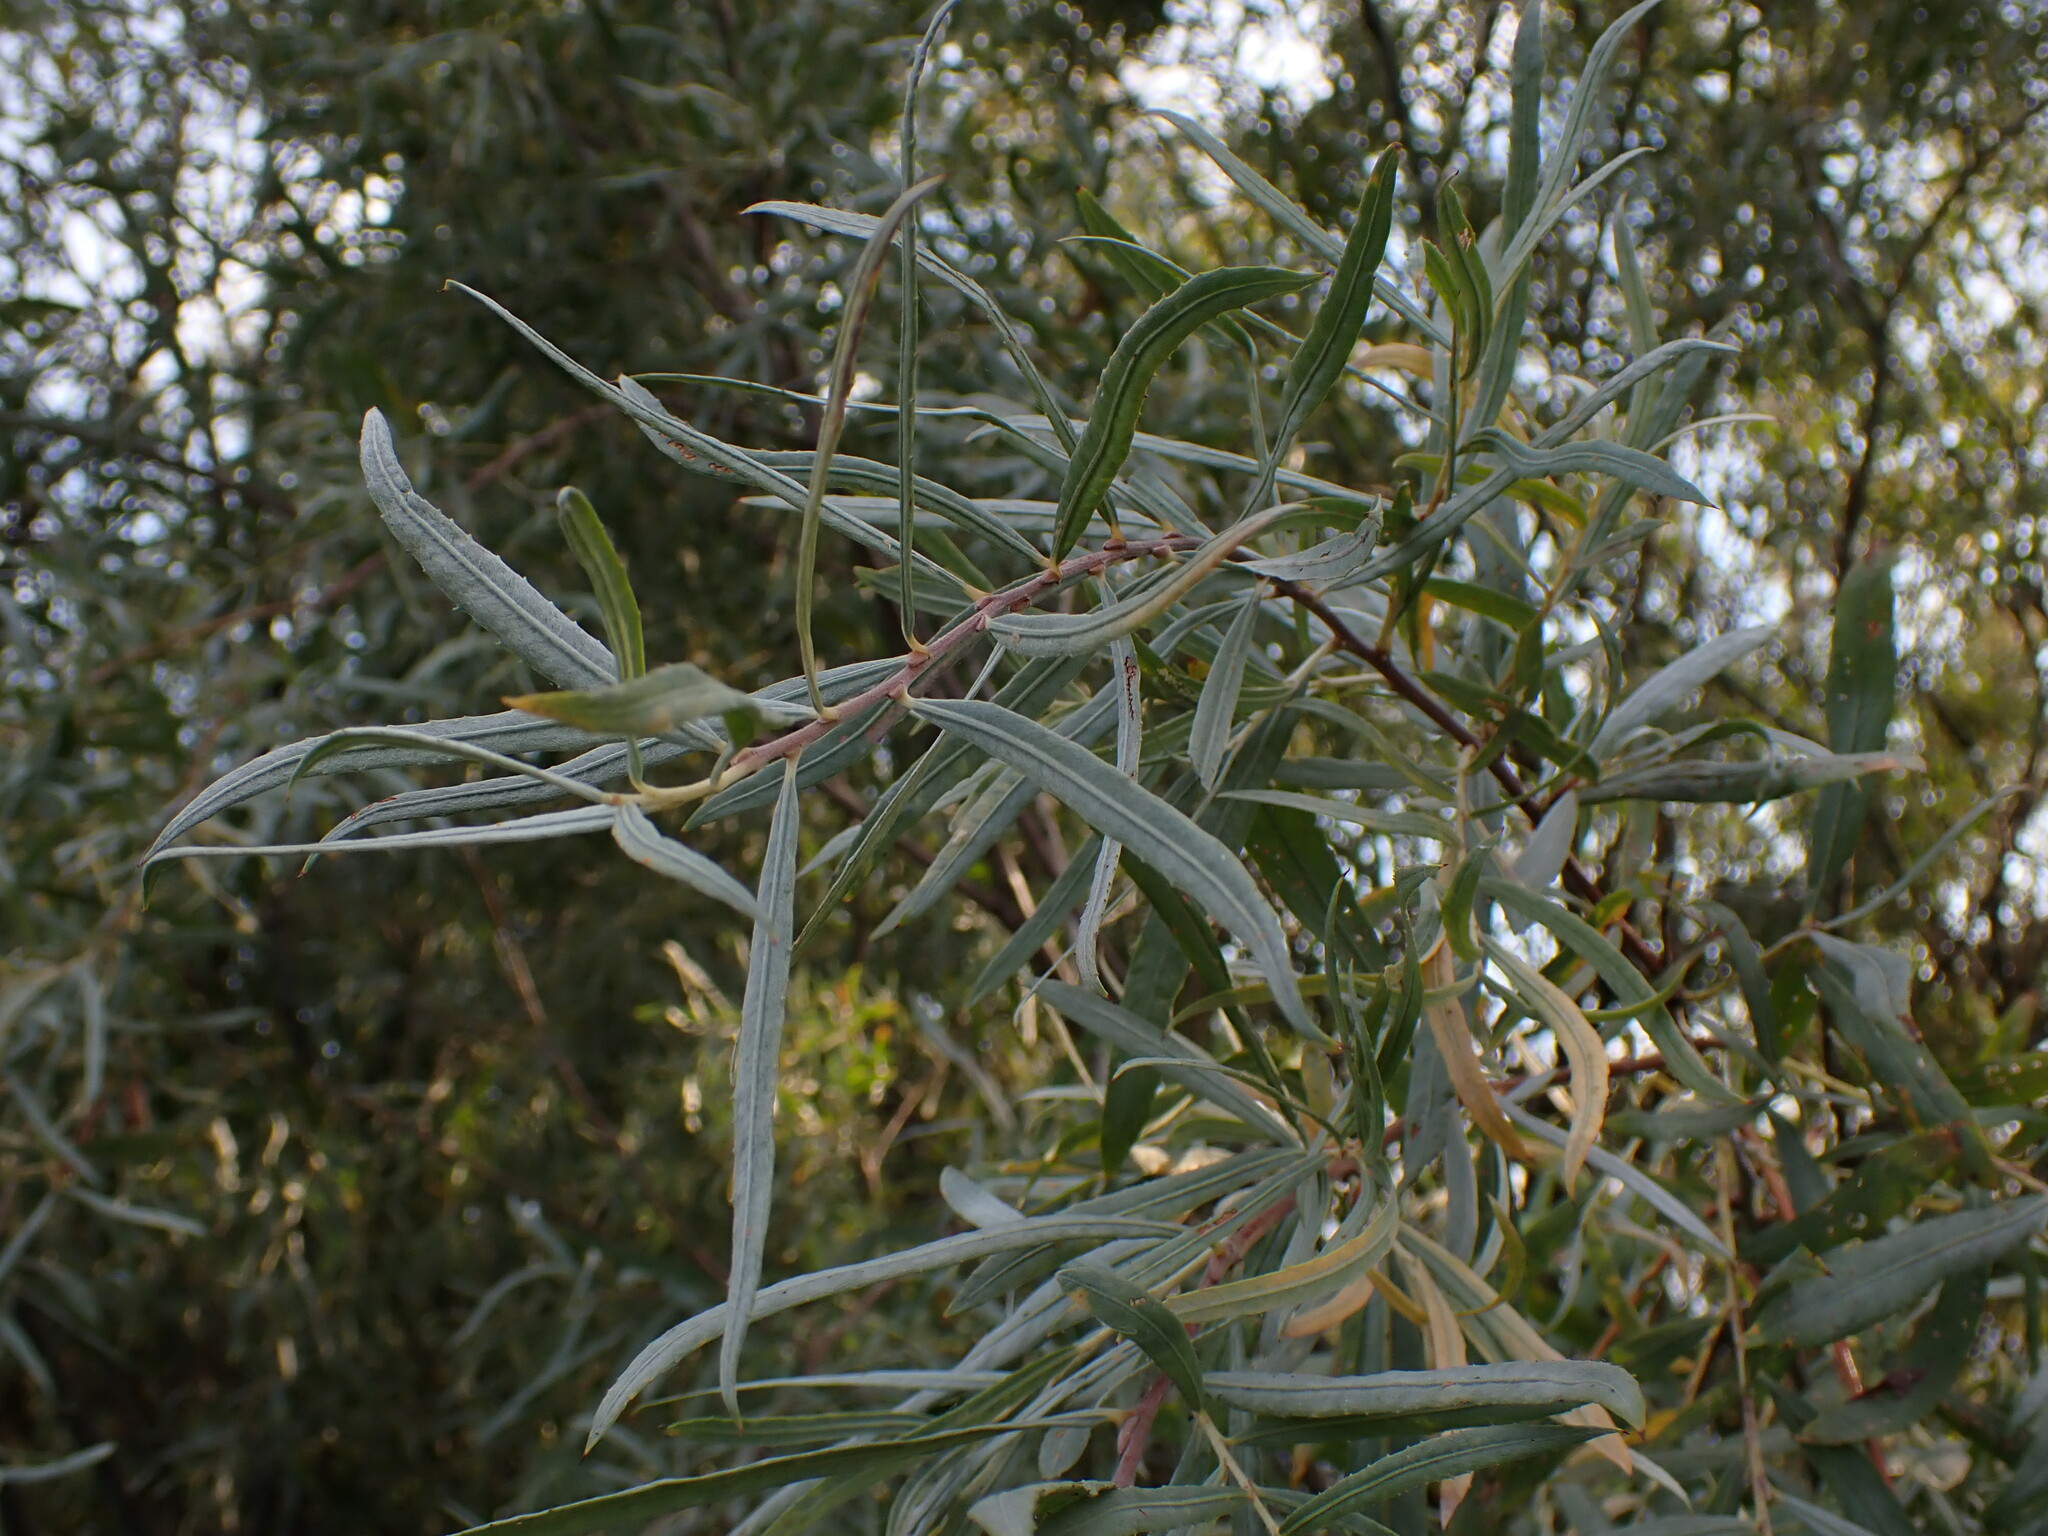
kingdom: Plantae
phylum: Tracheophyta
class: Magnoliopsida
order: Rosales
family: Elaeagnaceae
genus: Elaeagnus
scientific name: Elaeagnus angustifolia
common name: Russian olive
